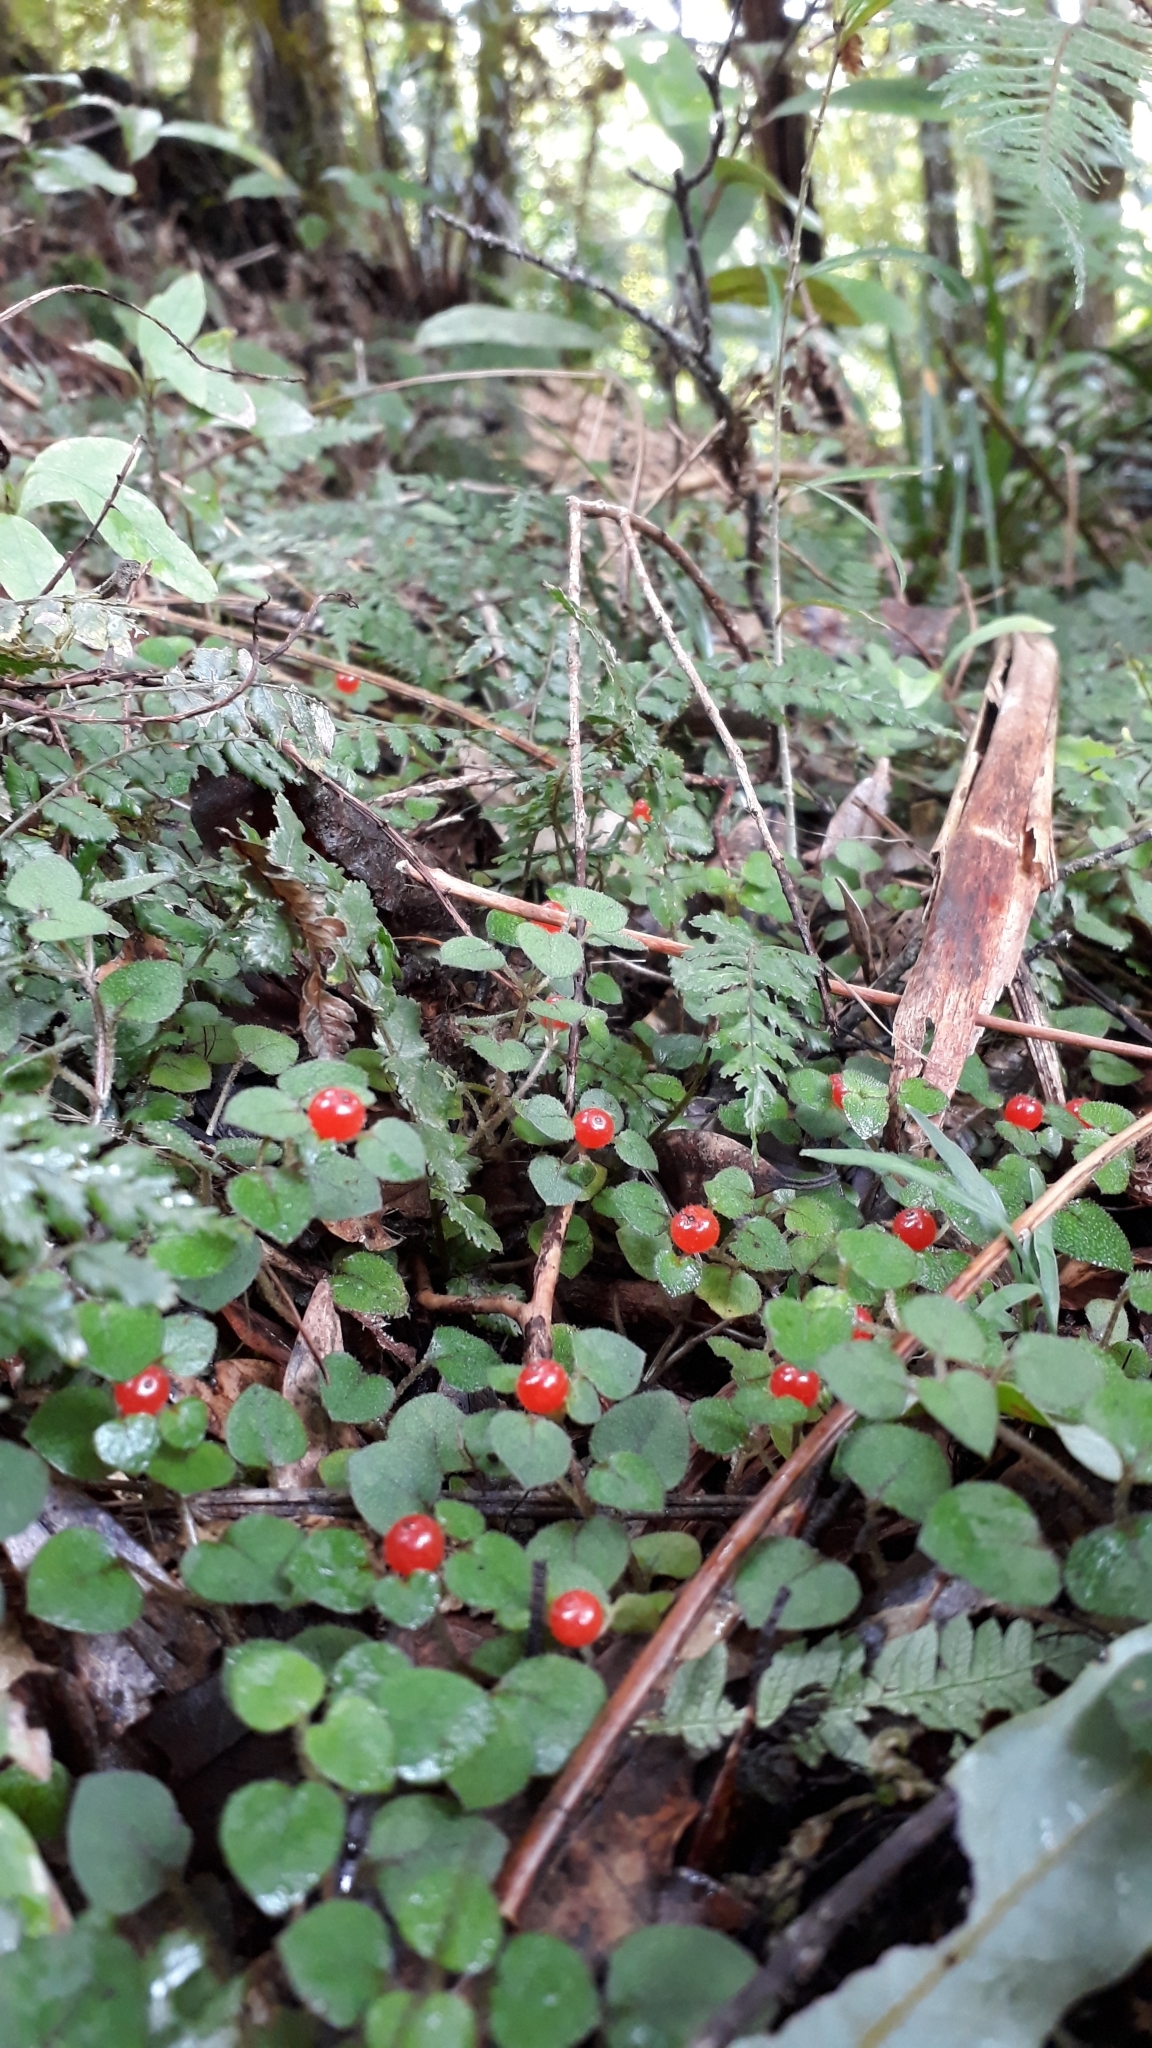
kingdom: Plantae
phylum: Tracheophyta
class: Magnoliopsida
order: Gentianales
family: Rubiaceae
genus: Nertera
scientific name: Nertera dichondrifolia
